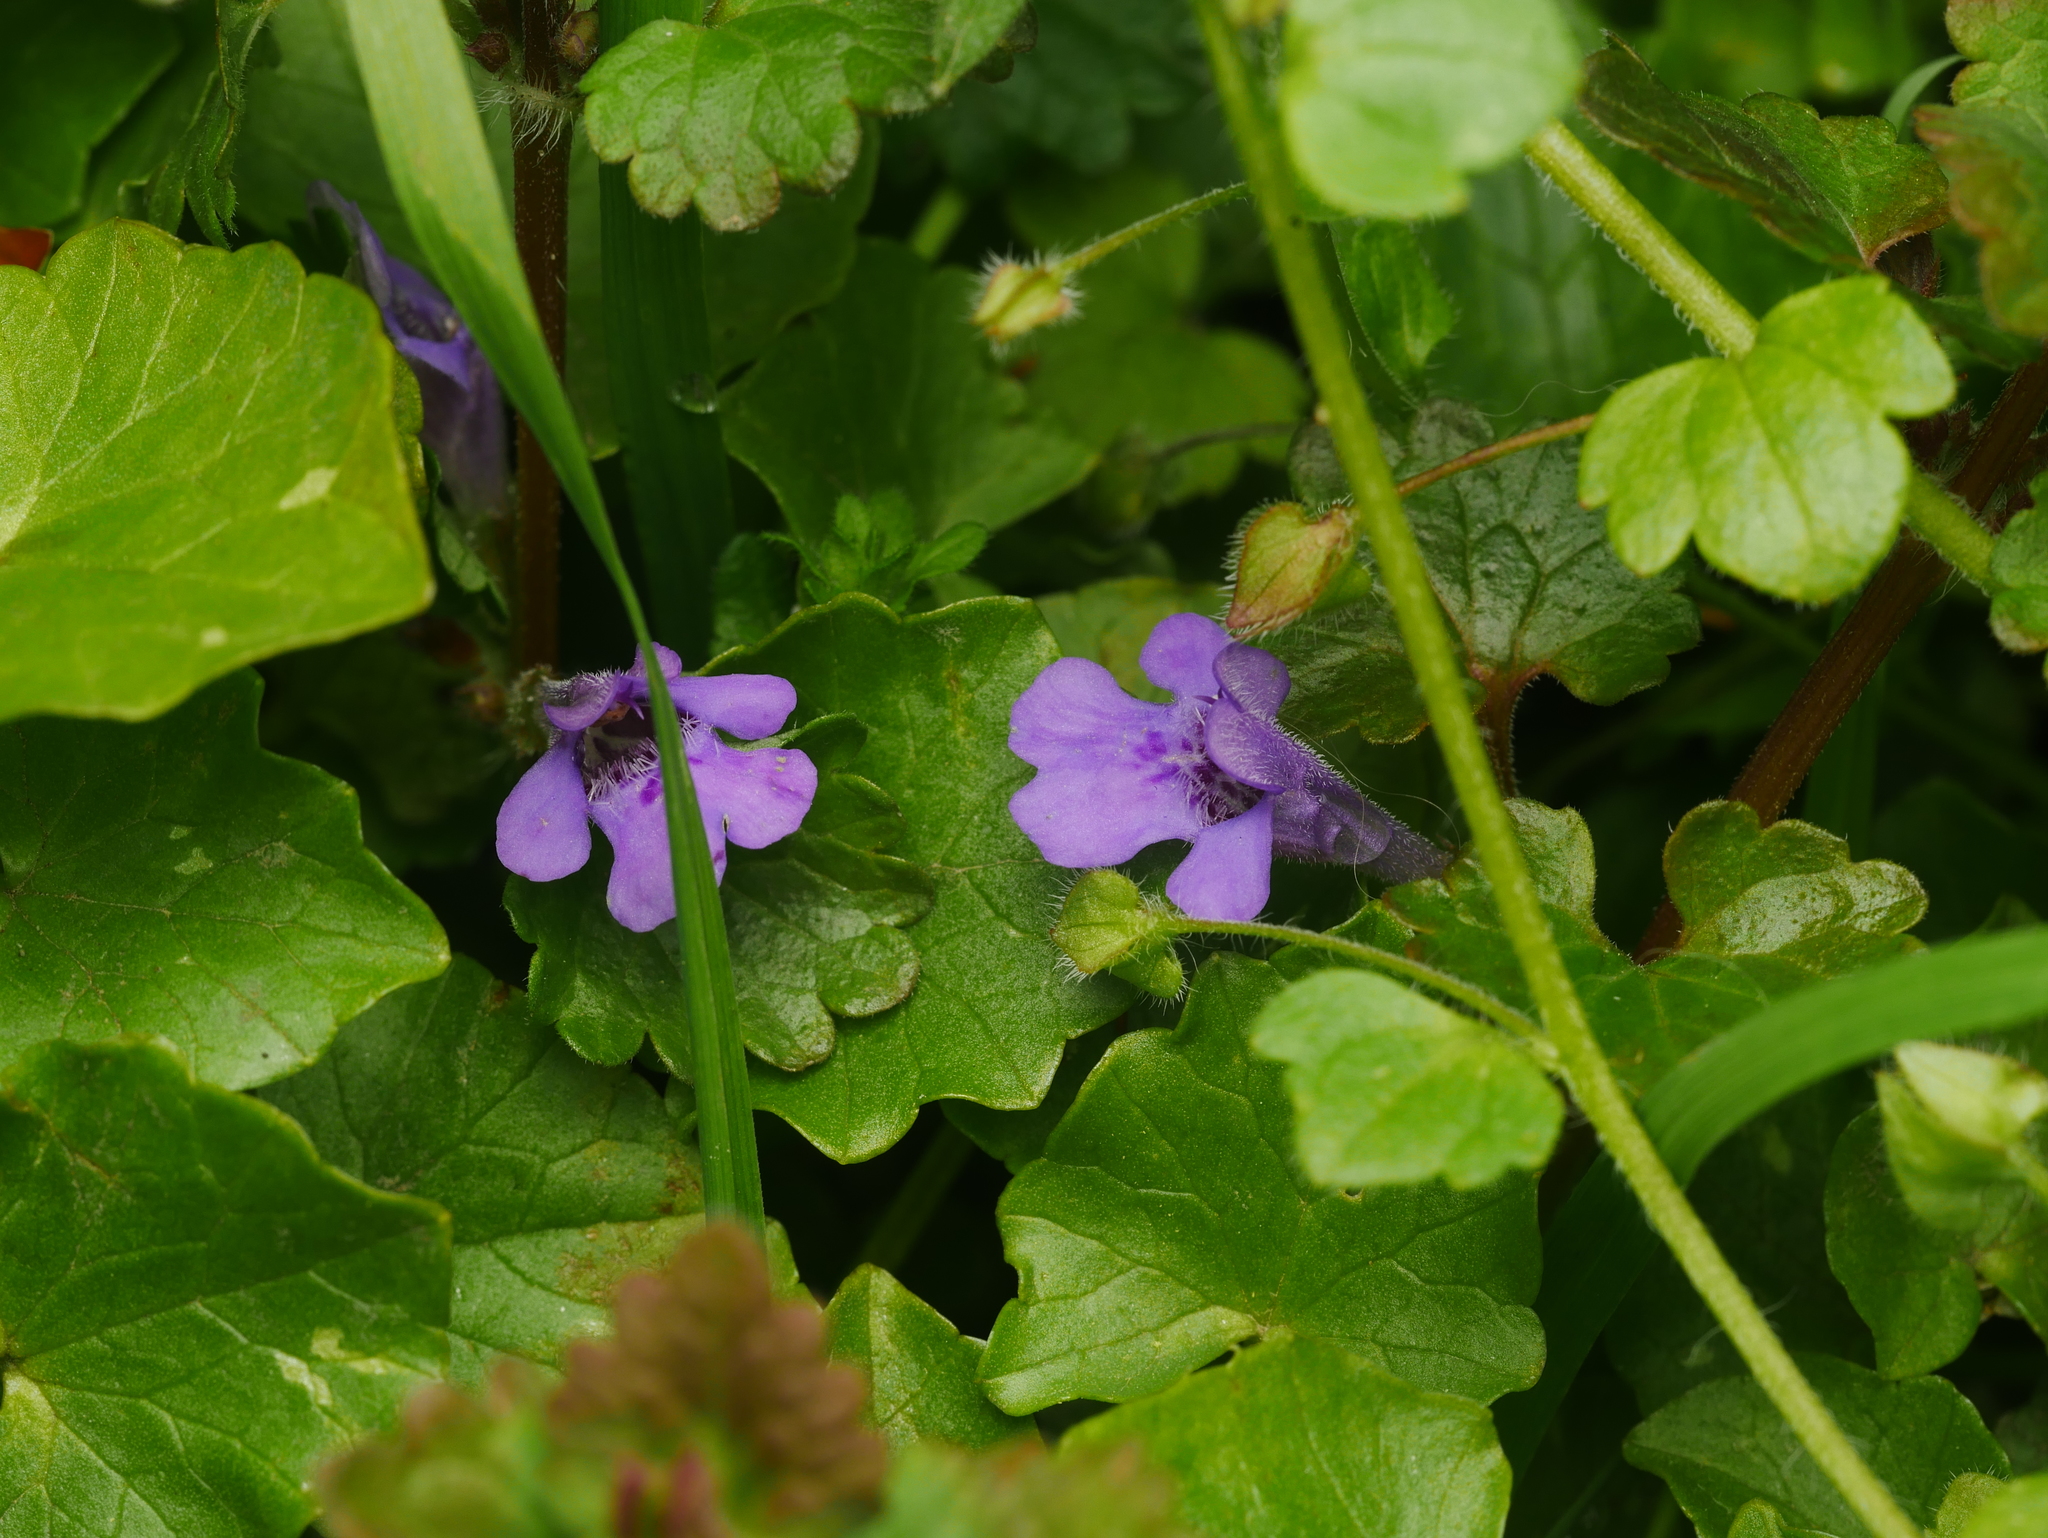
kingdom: Plantae
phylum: Tracheophyta
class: Magnoliopsida
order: Lamiales
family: Lamiaceae
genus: Glechoma
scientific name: Glechoma hederacea
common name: Ground ivy
